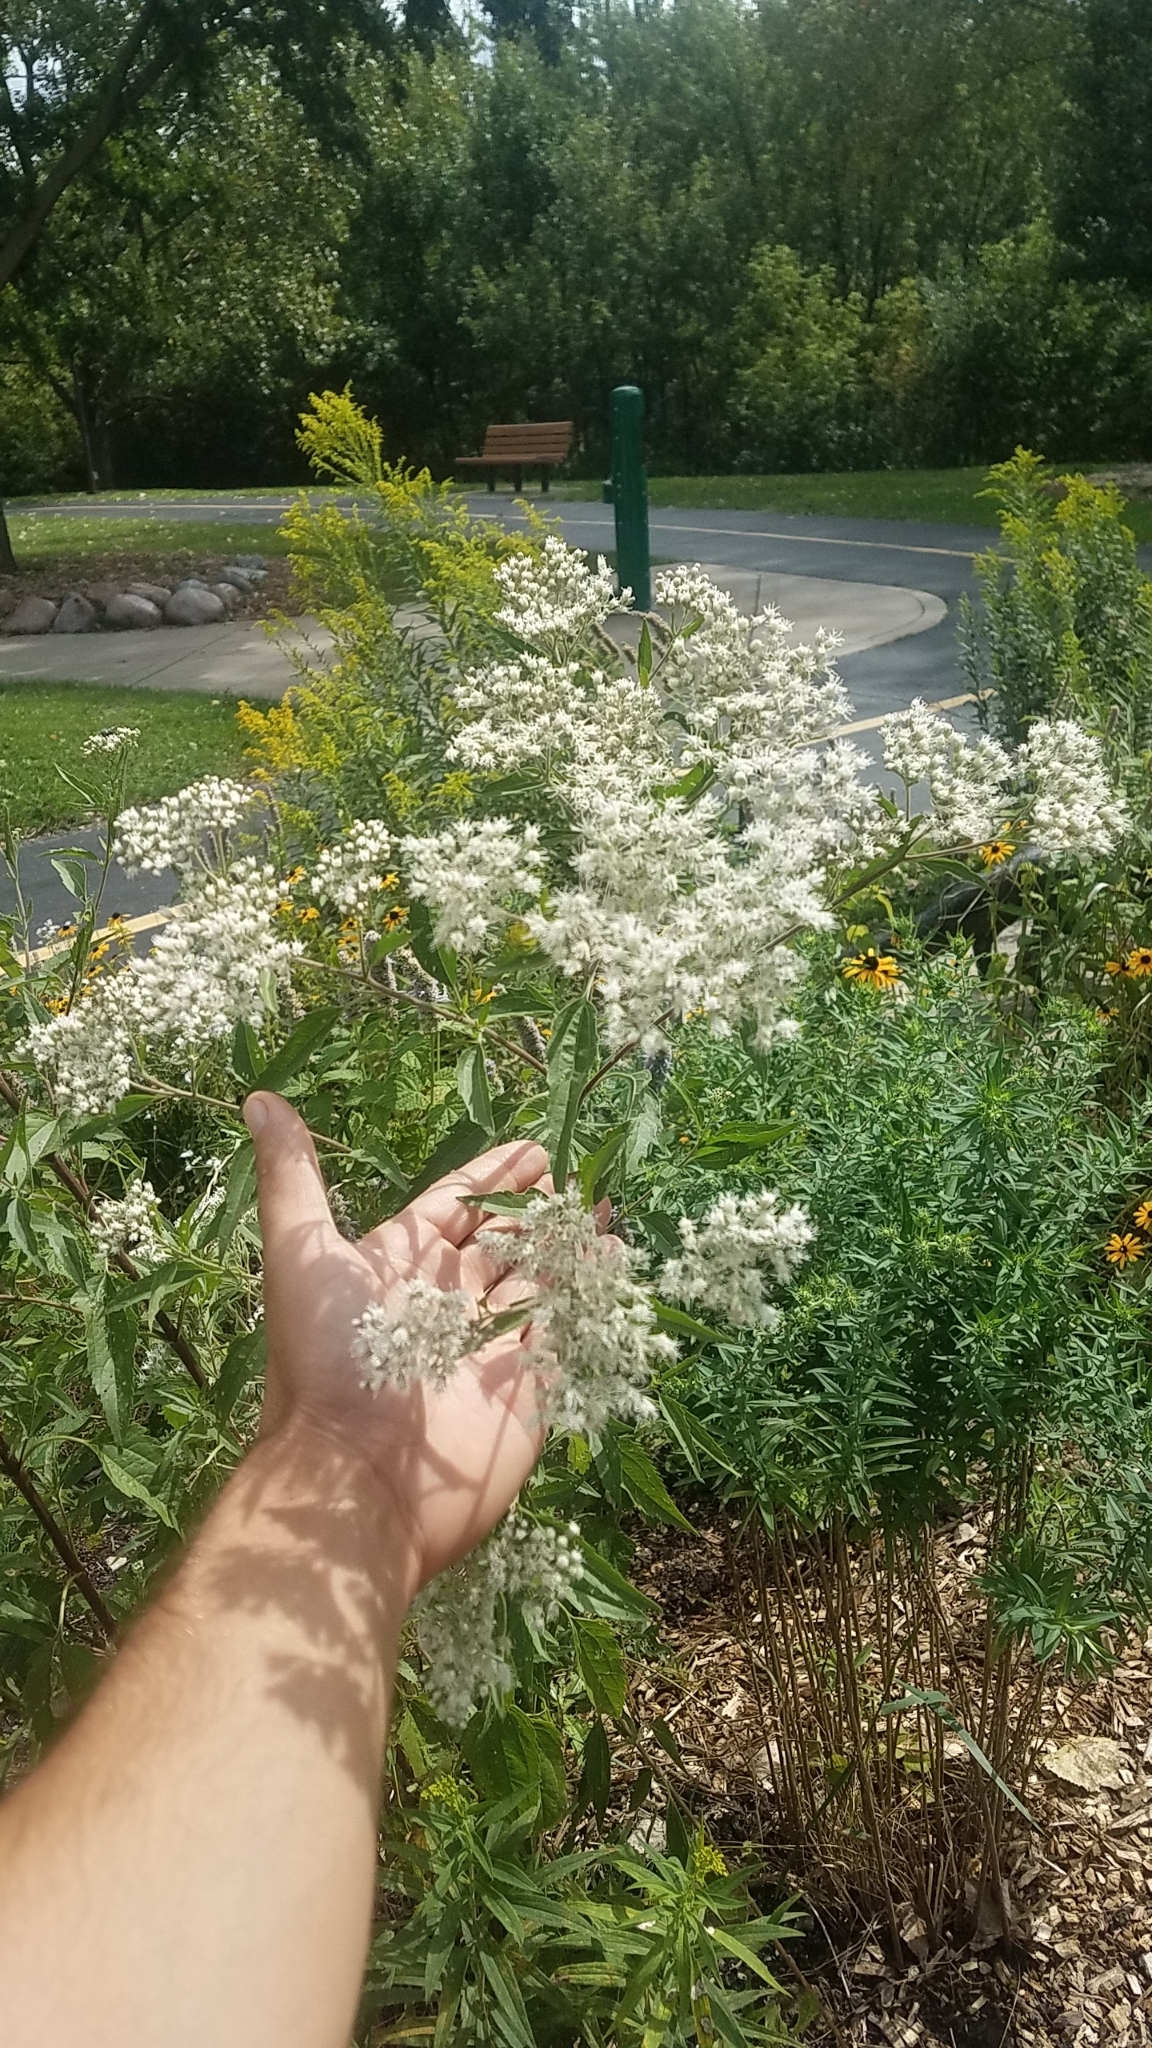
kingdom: Plantae
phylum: Tracheophyta
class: Magnoliopsida
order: Asterales
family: Asteraceae
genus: Eupatorium
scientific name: Eupatorium serotinum
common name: Late boneset
